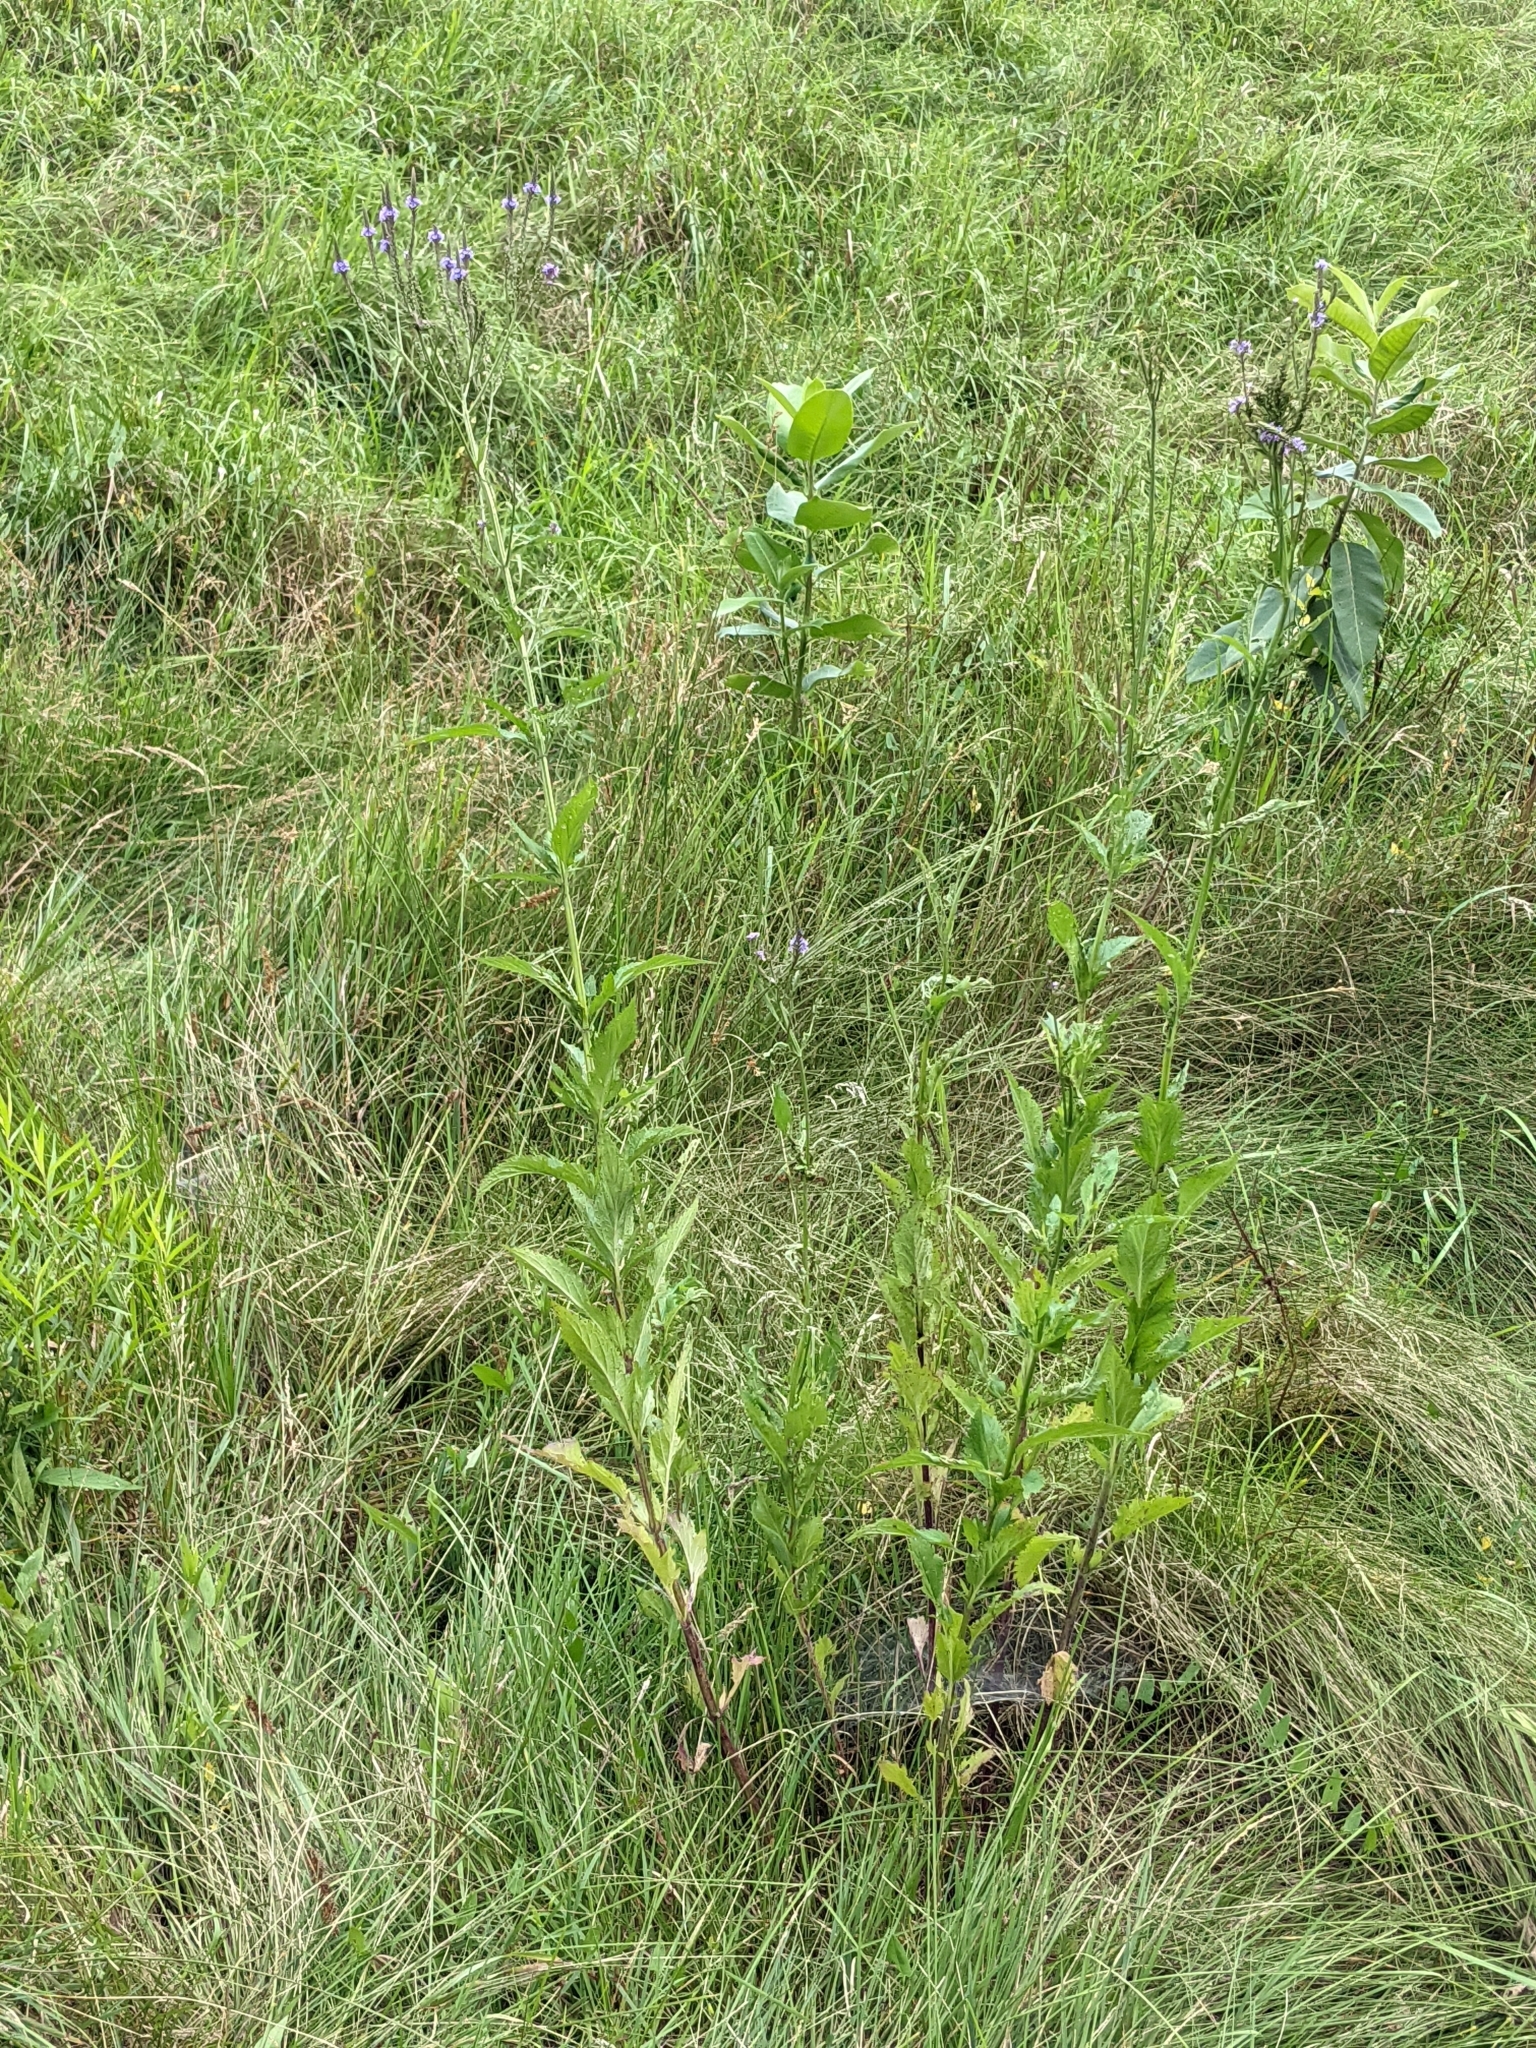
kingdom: Plantae
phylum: Tracheophyta
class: Magnoliopsida
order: Lamiales
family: Verbenaceae
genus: Verbena
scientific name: Verbena hastata
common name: American blue vervain
